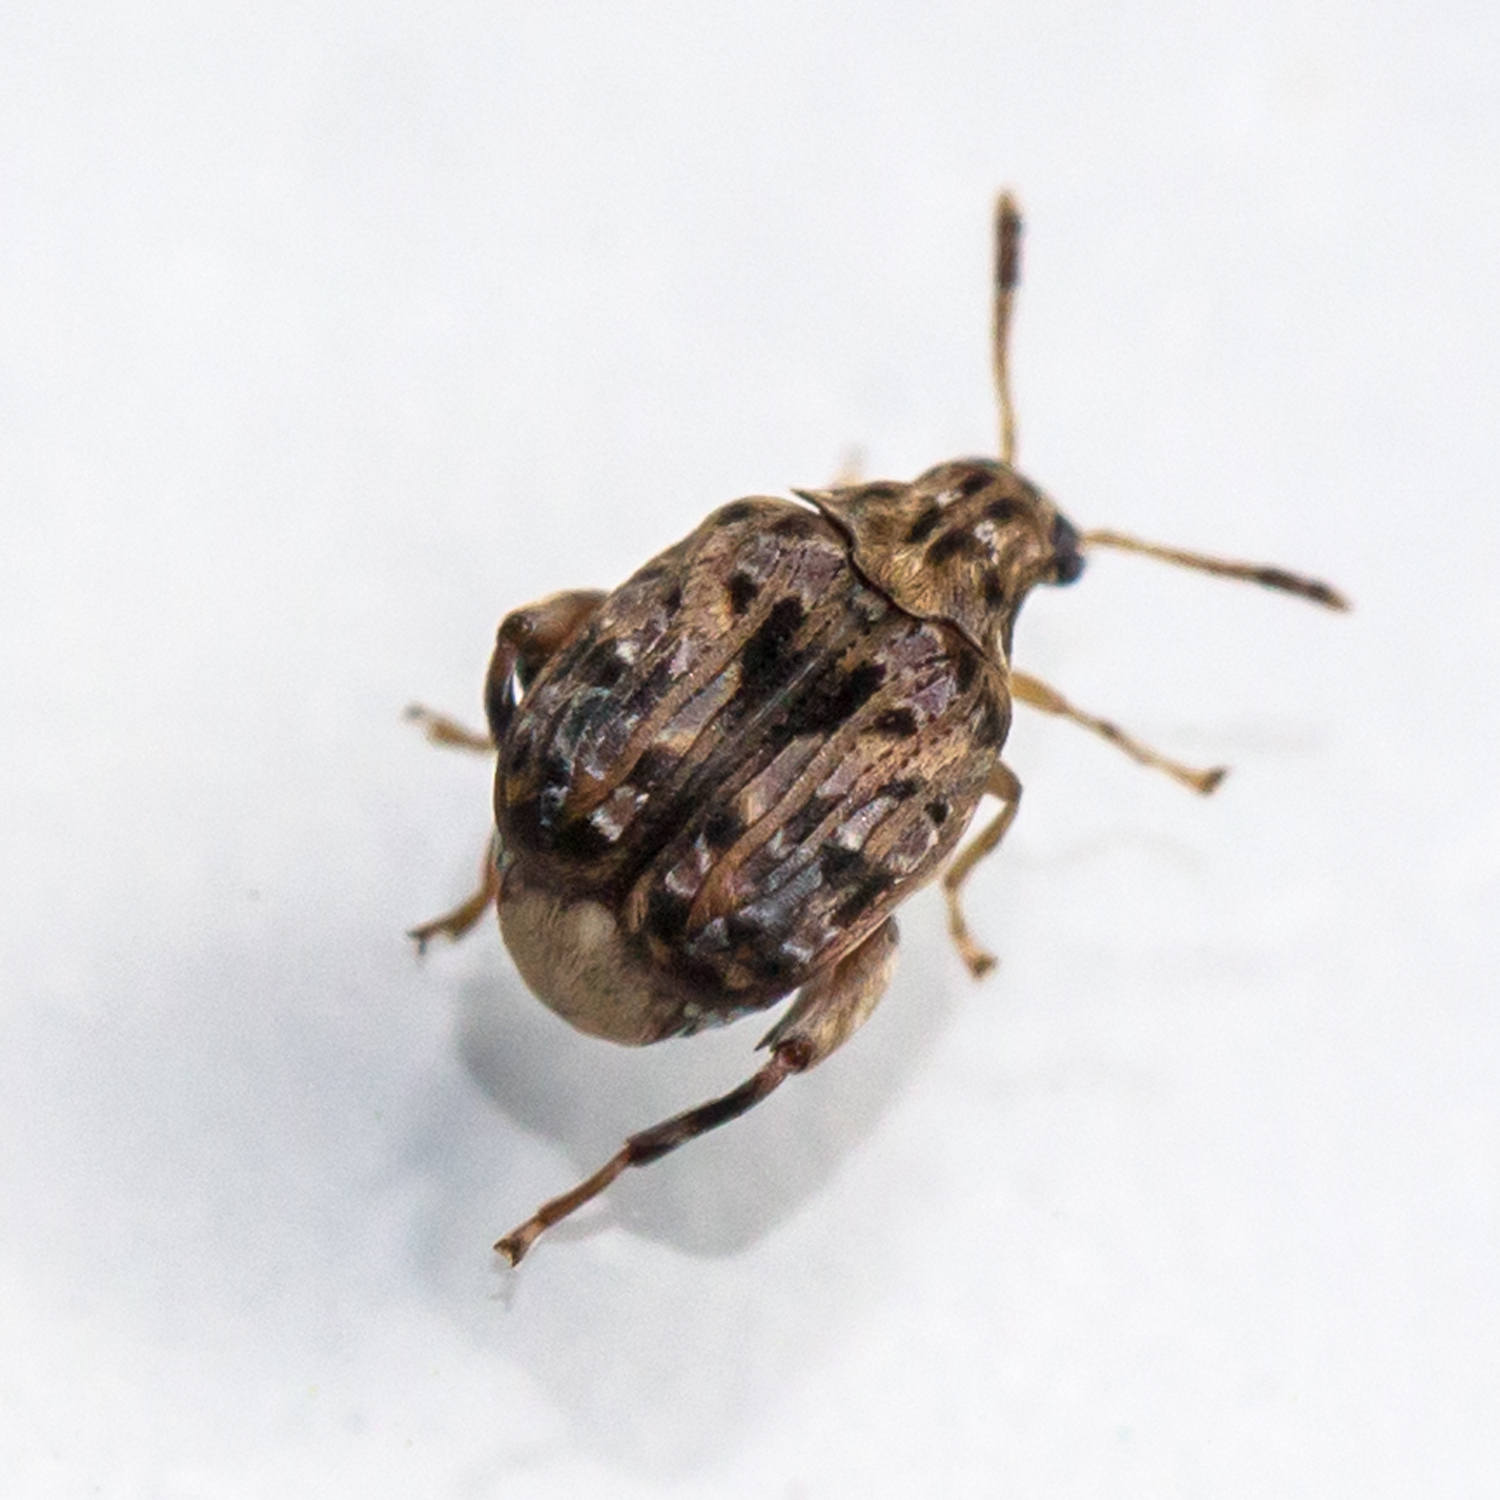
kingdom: Animalia
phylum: Arthropoda
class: Insecta
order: Coleoptera
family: Chrysomelidae
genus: Gibbobruchus
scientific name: Gibbobruchus mimus
